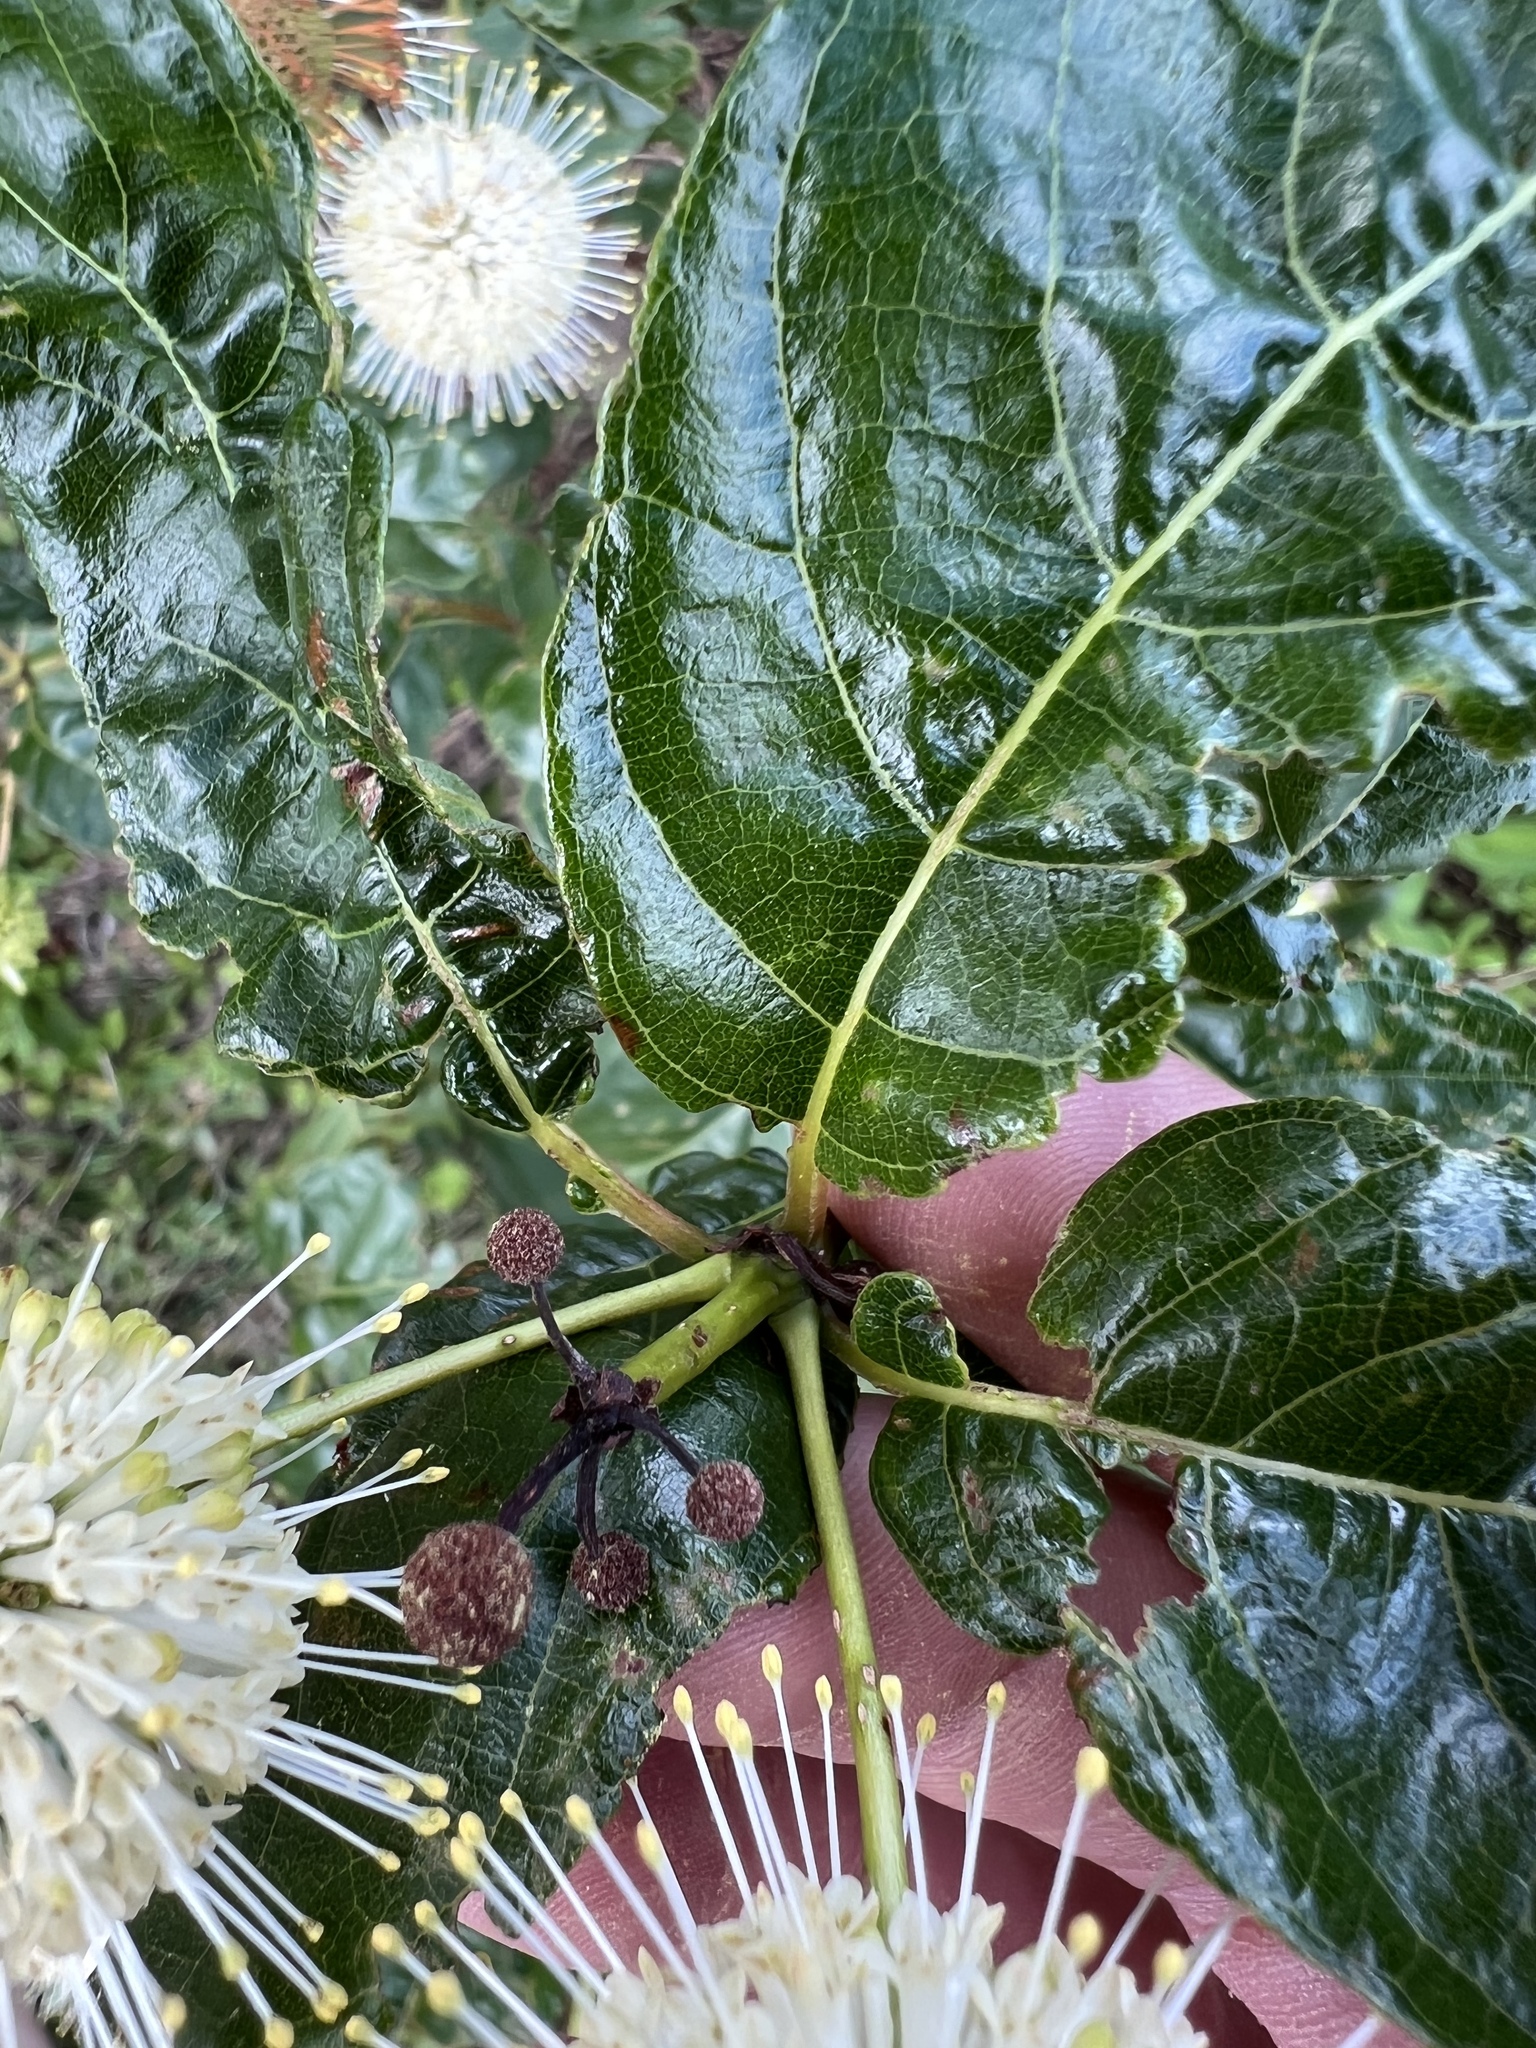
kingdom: Plantae
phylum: Tracheophyta
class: Magnoliopsida
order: Gentianales
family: Rubiaceae
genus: Cephalanthus
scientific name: Cephalanthus occidentalis
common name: Button-willow
